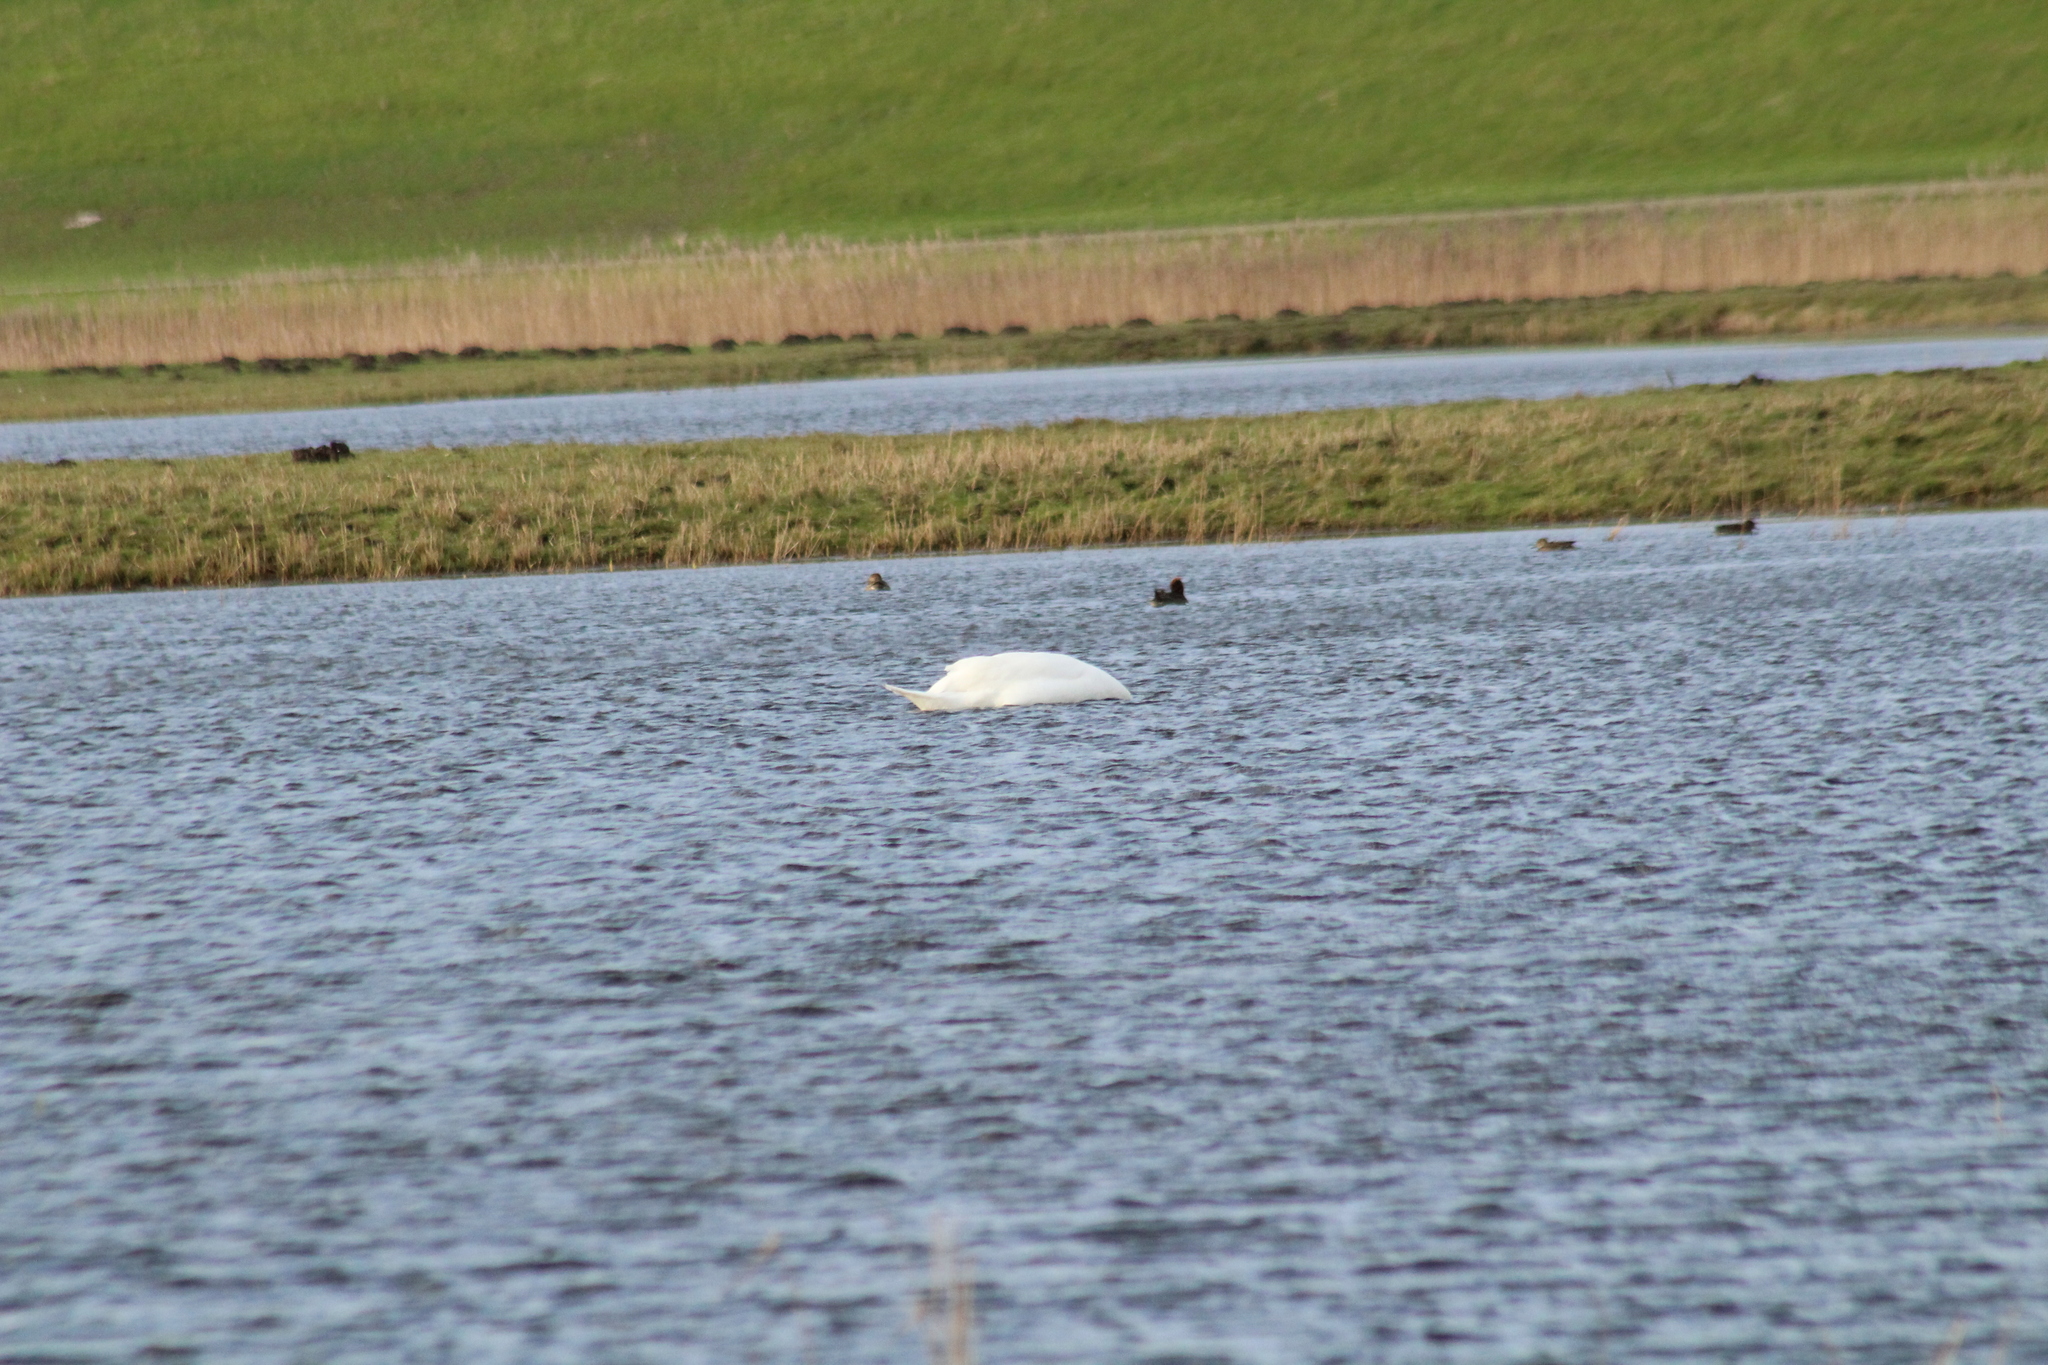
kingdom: Animalia
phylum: Chordata
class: Aves
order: Anseriformes
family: Anatidae
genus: Cygnus
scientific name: Cygnus olor
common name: Mute swan
